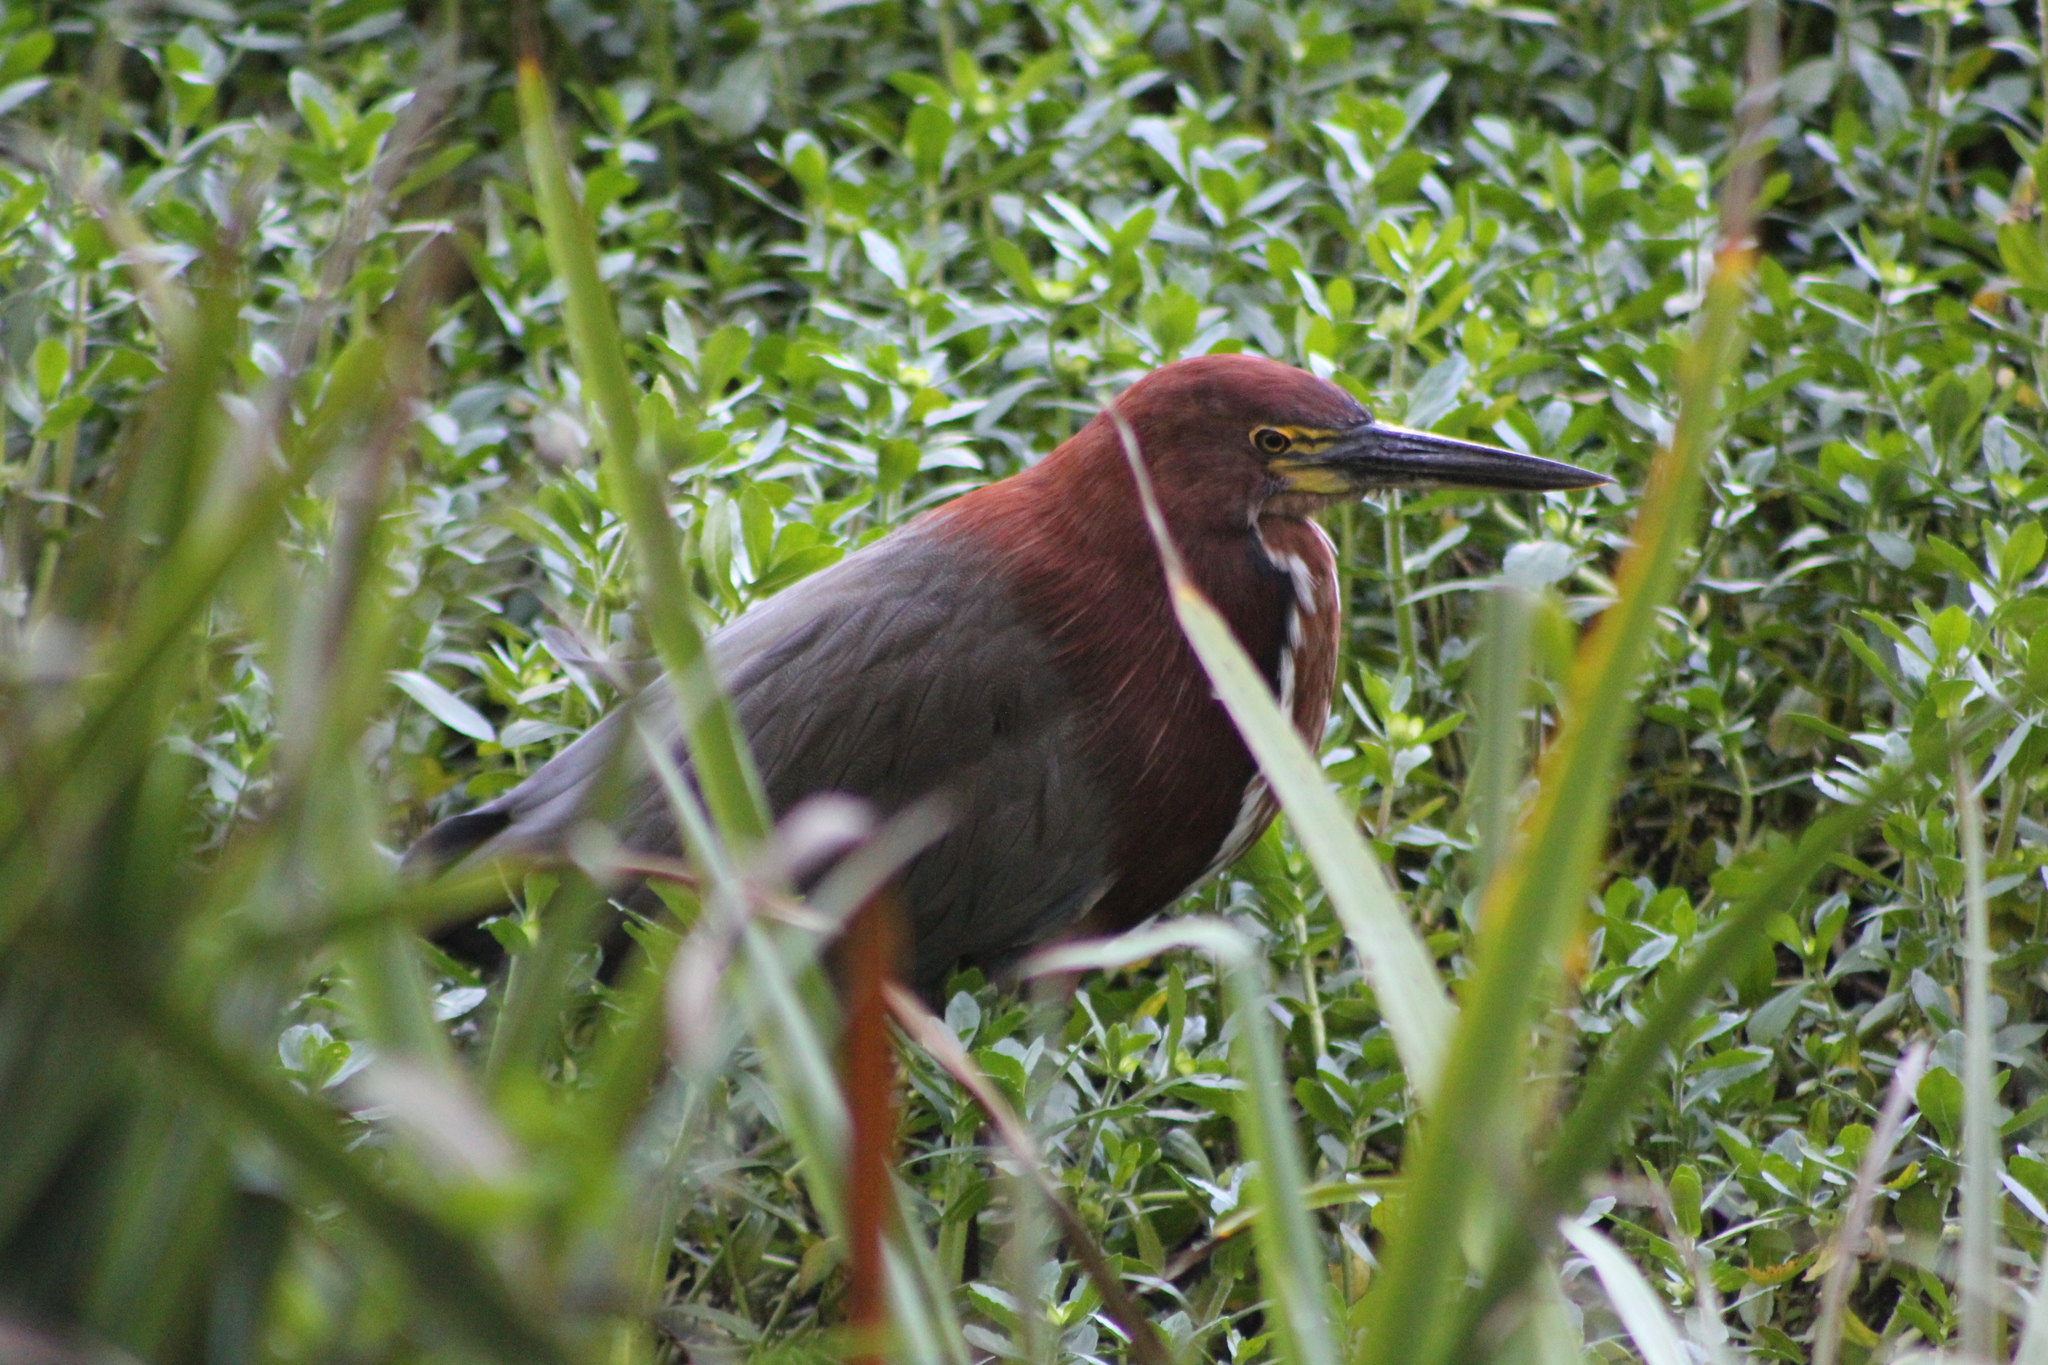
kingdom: Animalia
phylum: Chordata
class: Aves
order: Pelecaniformes
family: Ardeidae
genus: Tigrisoma
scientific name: Tigrisoma lineatum
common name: Rufescent tiger-heron
